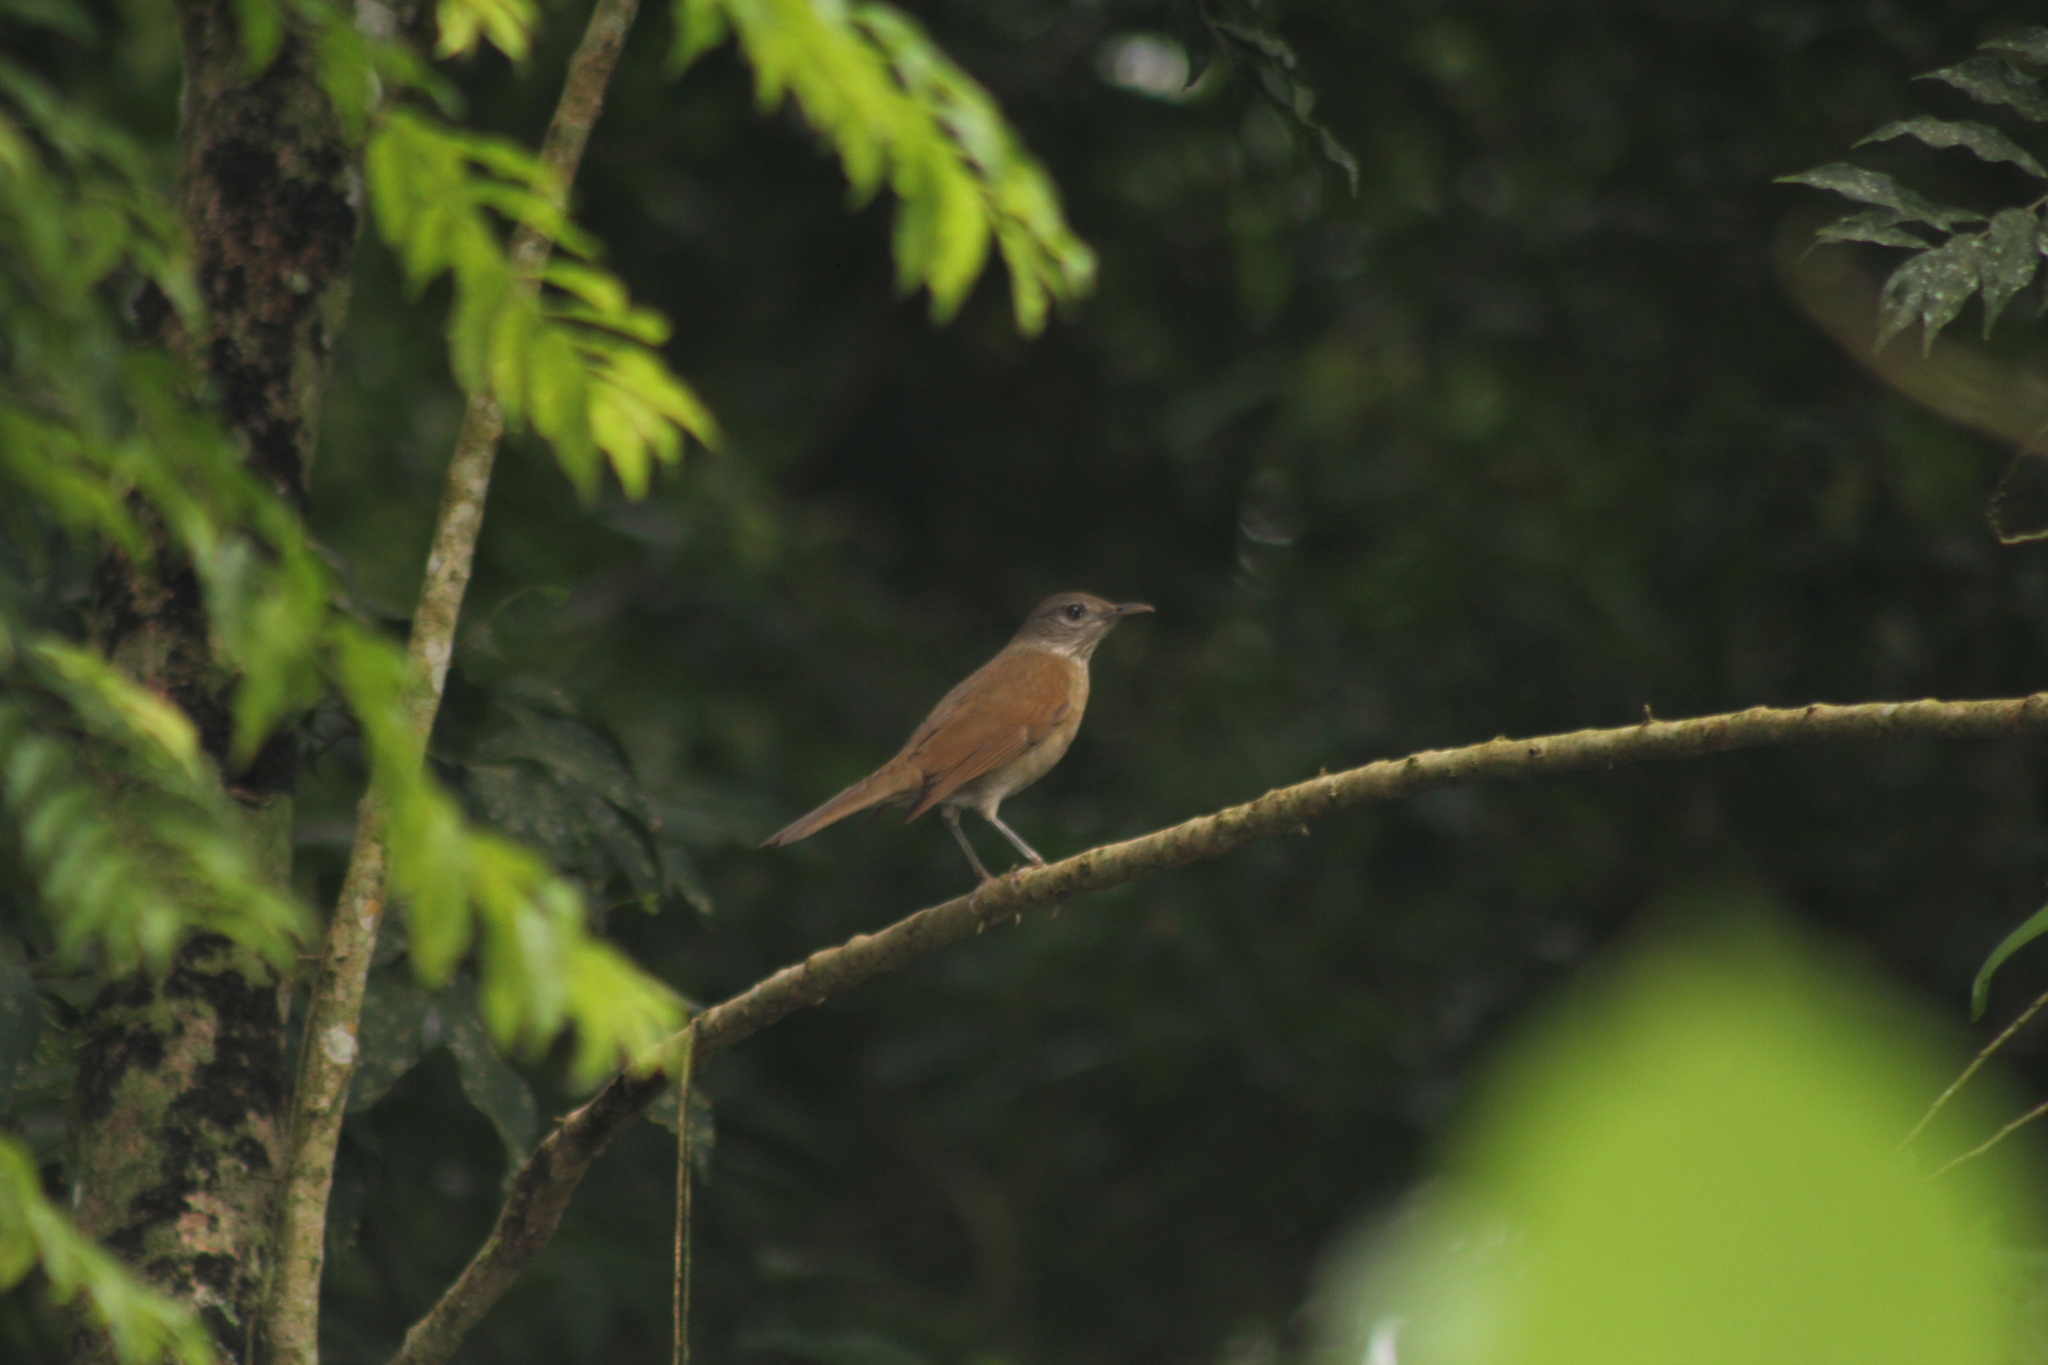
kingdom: Animalia
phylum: Chordata
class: Aves
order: Passeriformes
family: Turdidae
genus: Turdus
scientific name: Turdus leucomelas
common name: Pale-breasted thrush
